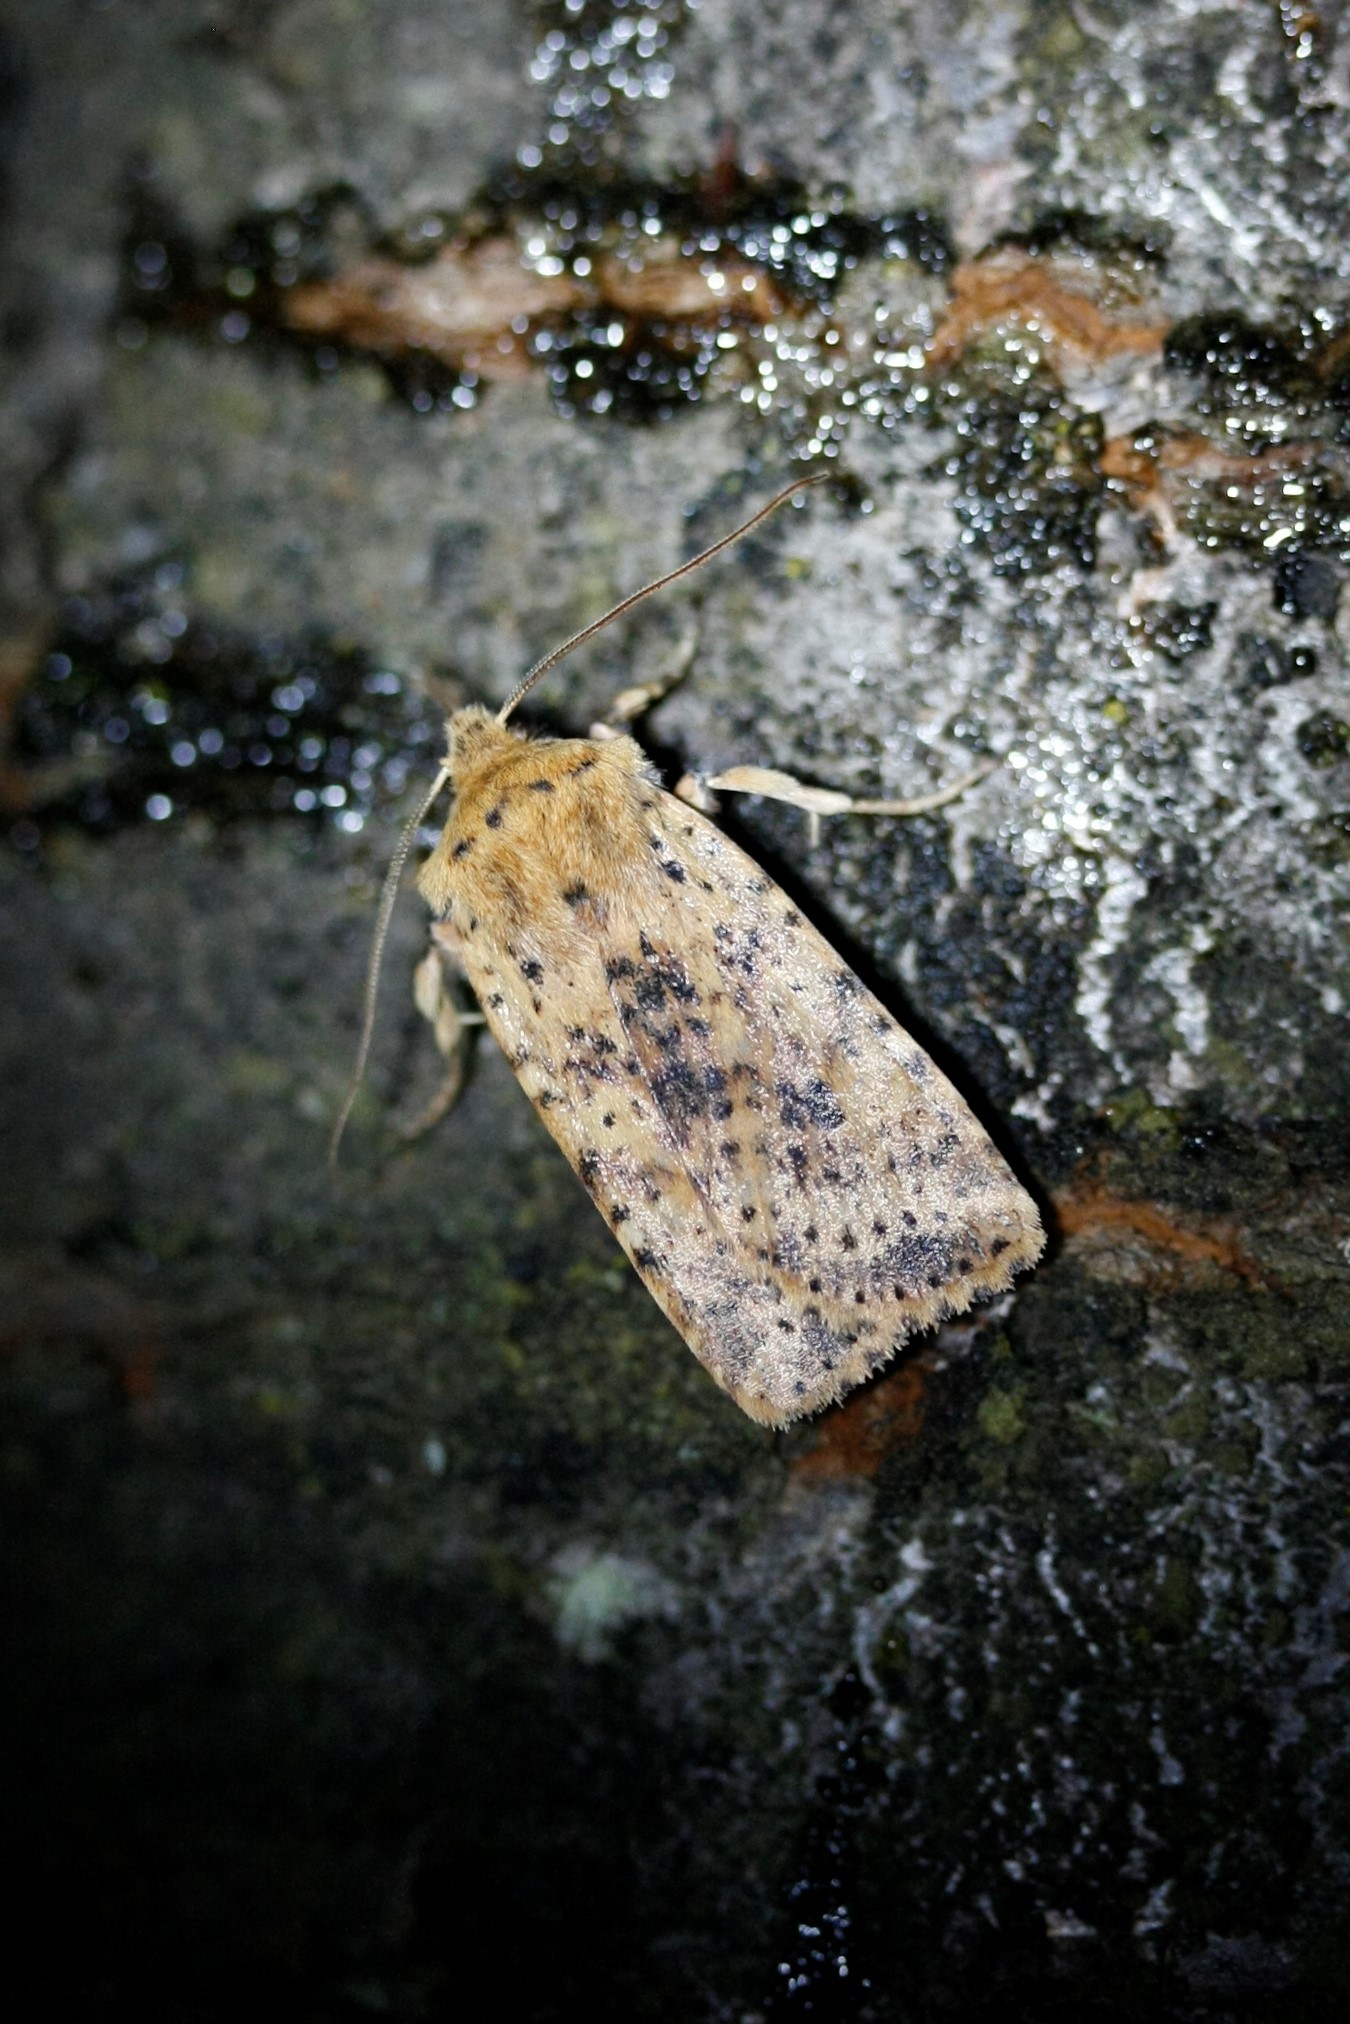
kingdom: Animalia
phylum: Arthropoda
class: Insecta
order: Lepidoptera
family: Noctuidae
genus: Conistra
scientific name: Conistra rubiginea
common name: Dotted chestnut
